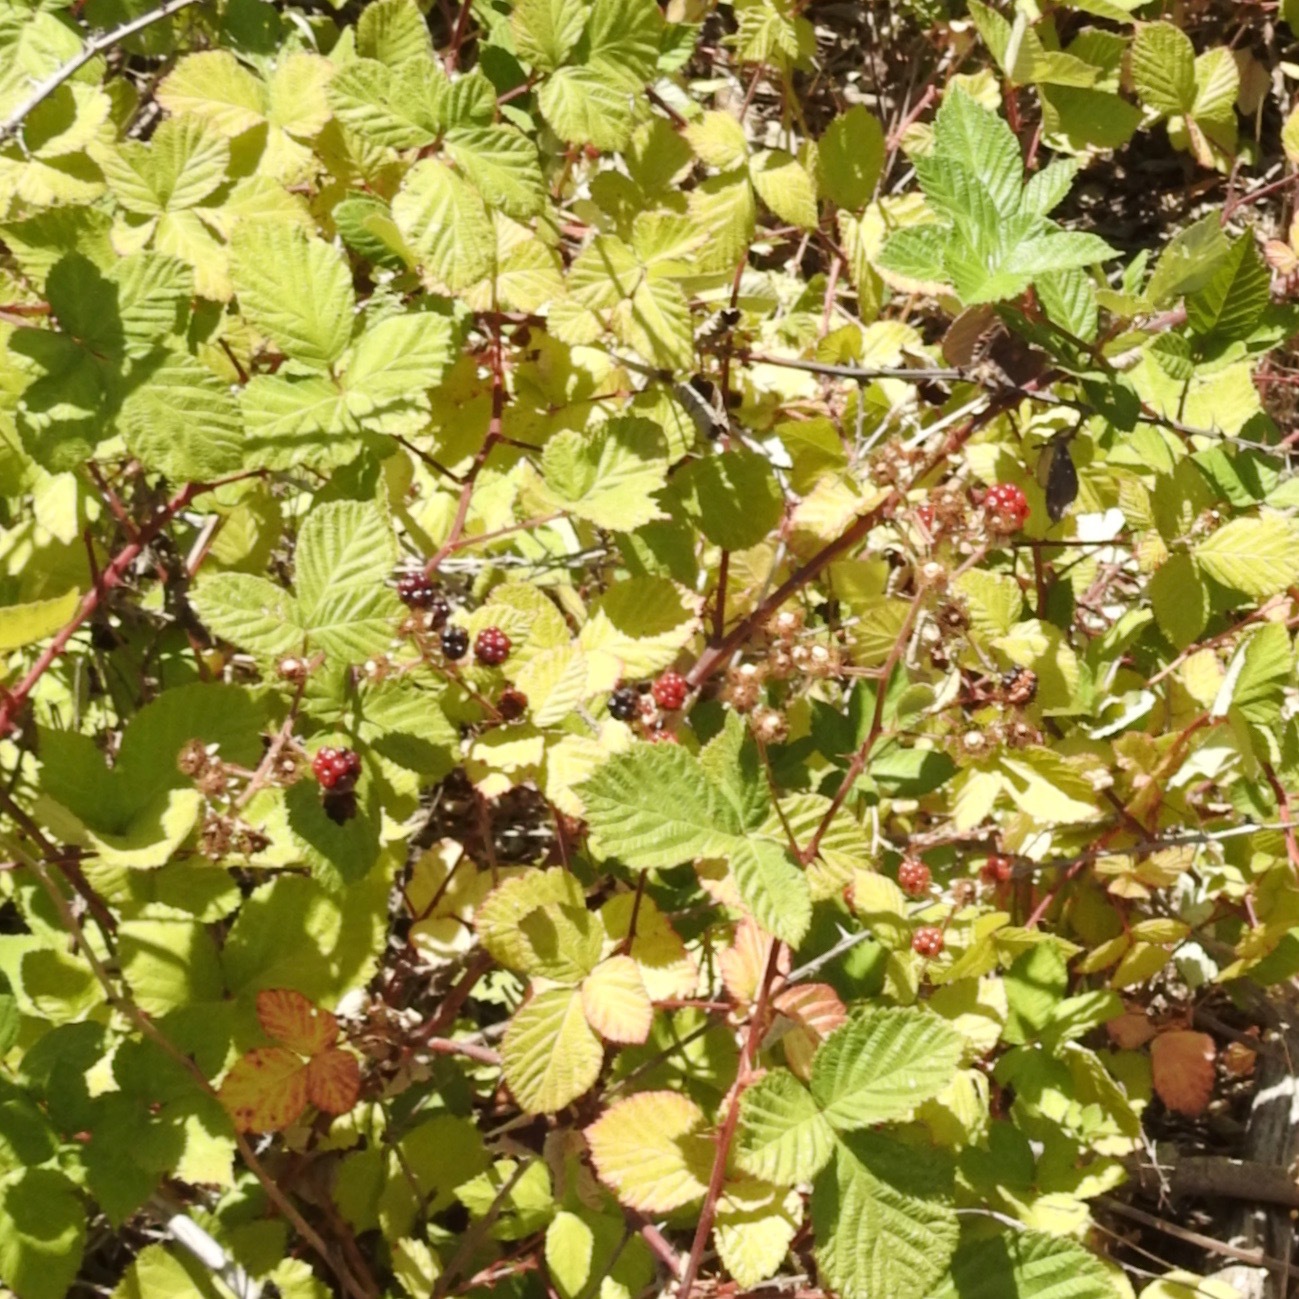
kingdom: Plantae
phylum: Tracheophyta
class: Magnoliopsida
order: Rosales
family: Rosaceae
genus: Rubus
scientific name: Rubus armeniacus
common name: Himalayan blackberry
